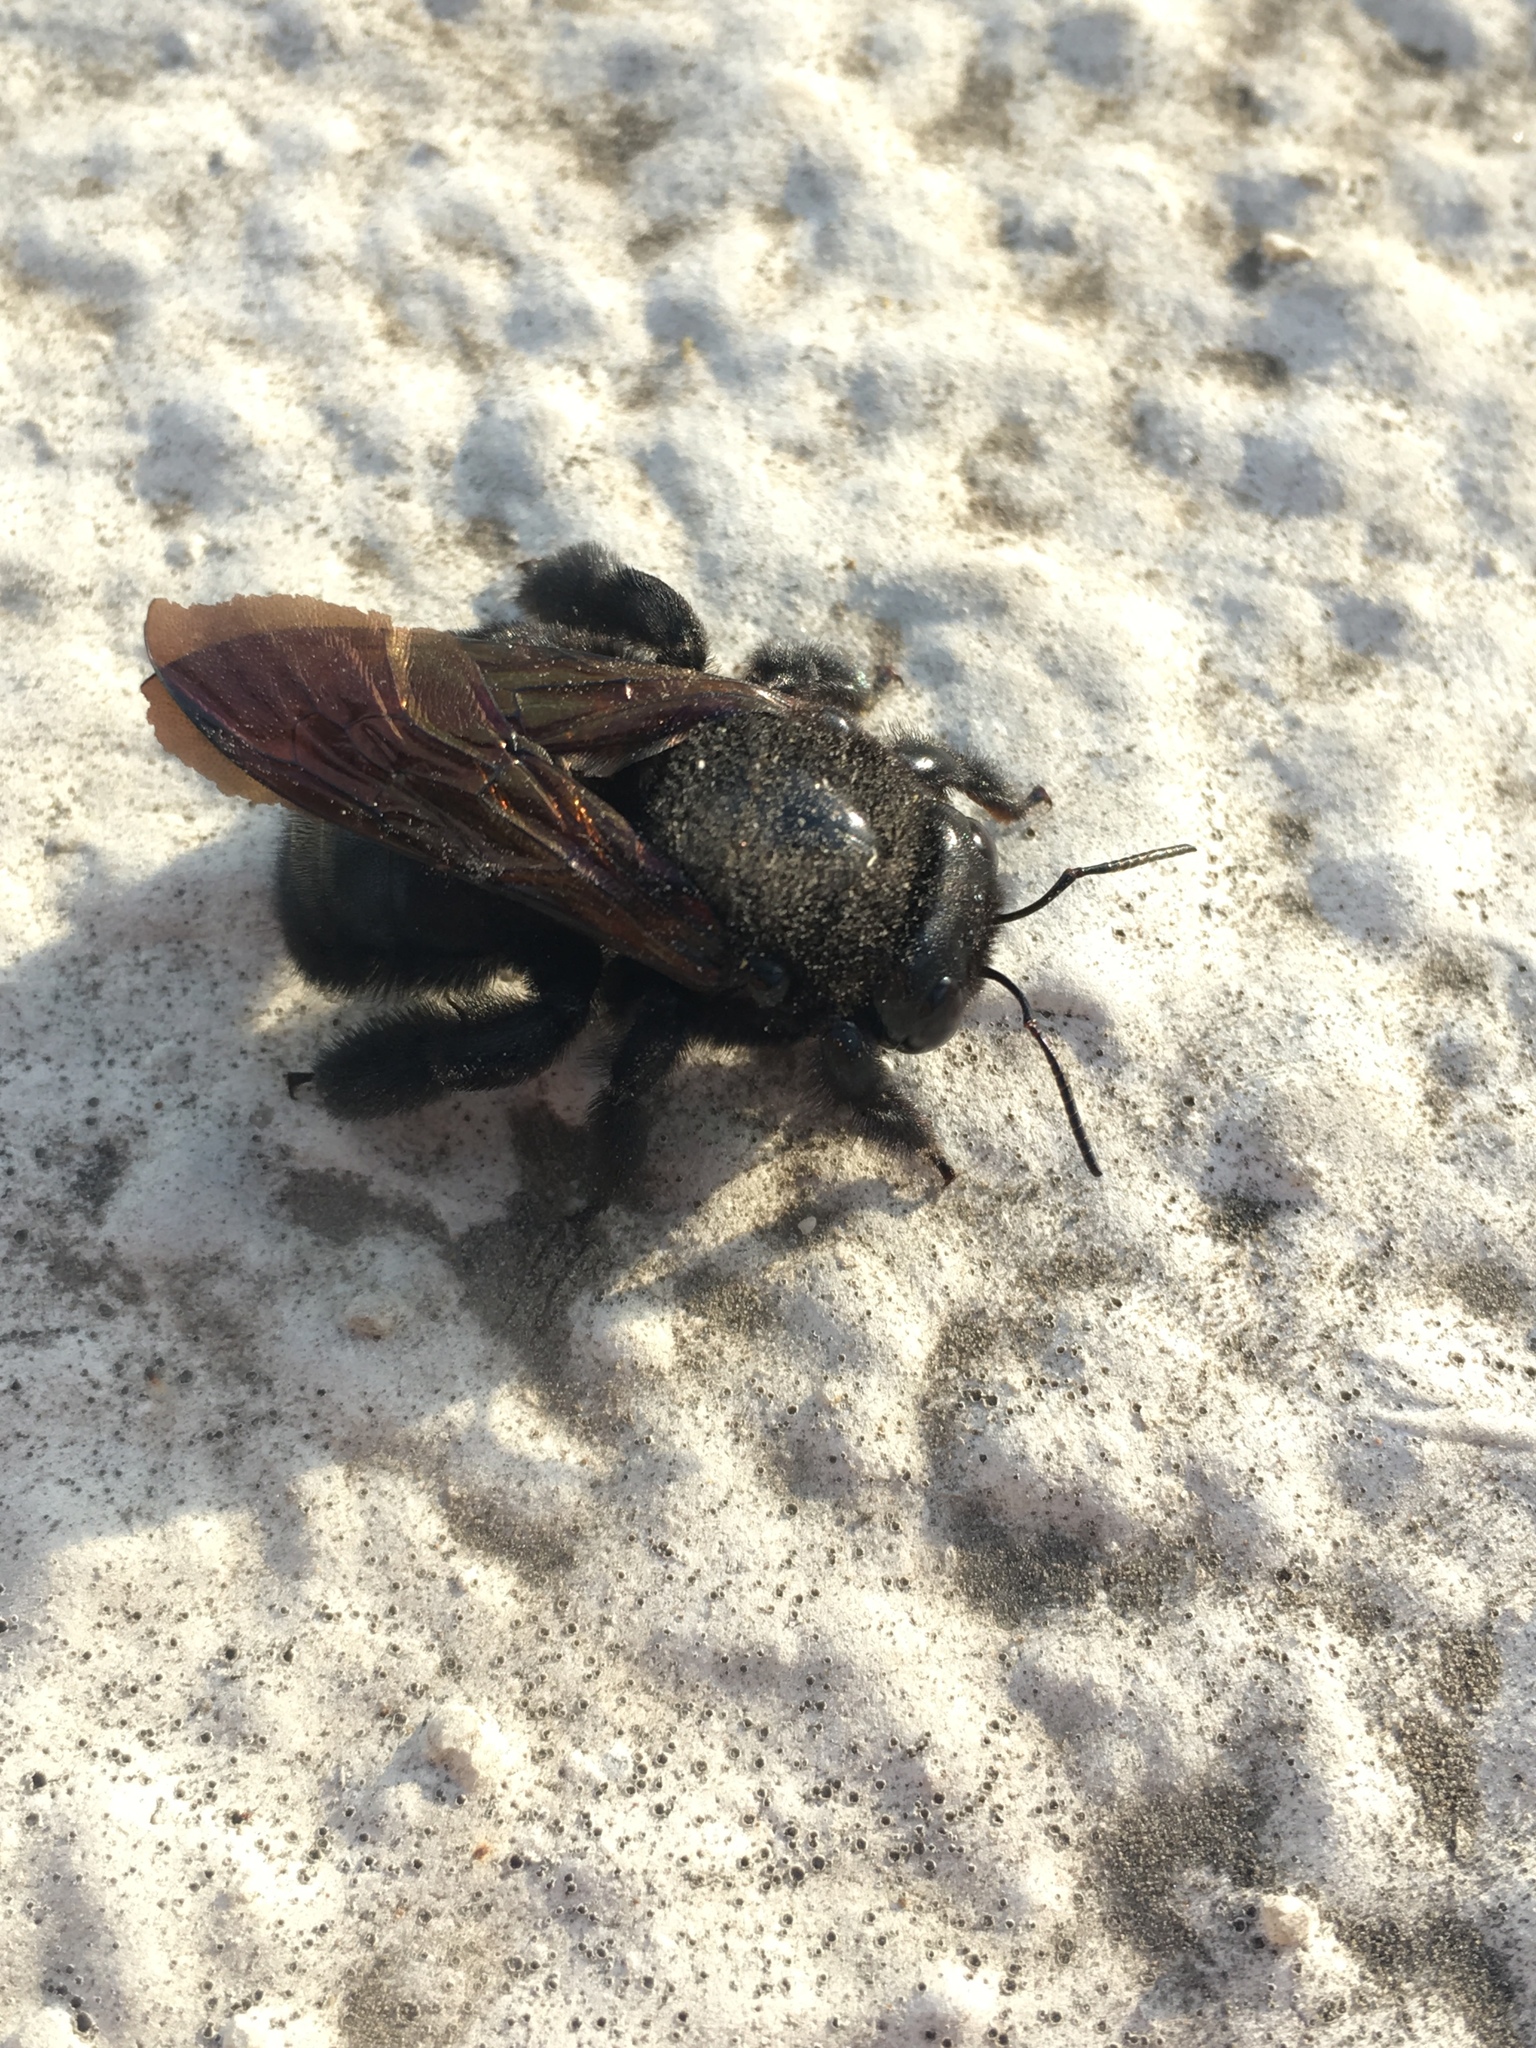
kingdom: Animalia
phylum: Arthropoda
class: Insecta
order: Hymenoptera
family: Apidae
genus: Xylocopa
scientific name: Xylocopa sonorina
